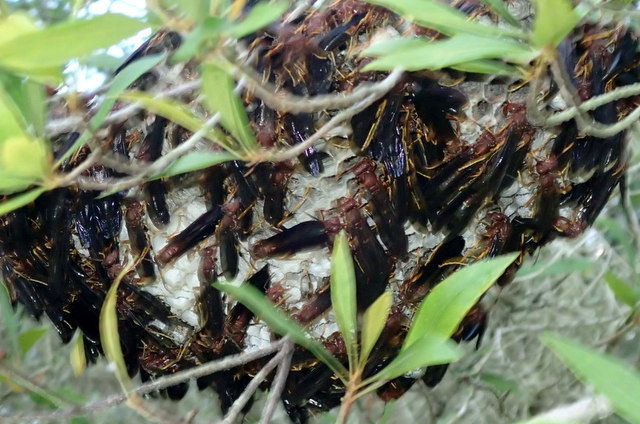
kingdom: Animalia
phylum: Arthropoda
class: Insecta
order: Hymenoptera
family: Eumenidae
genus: Polistes
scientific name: Polistes annularis
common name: Ringed paper wasp
